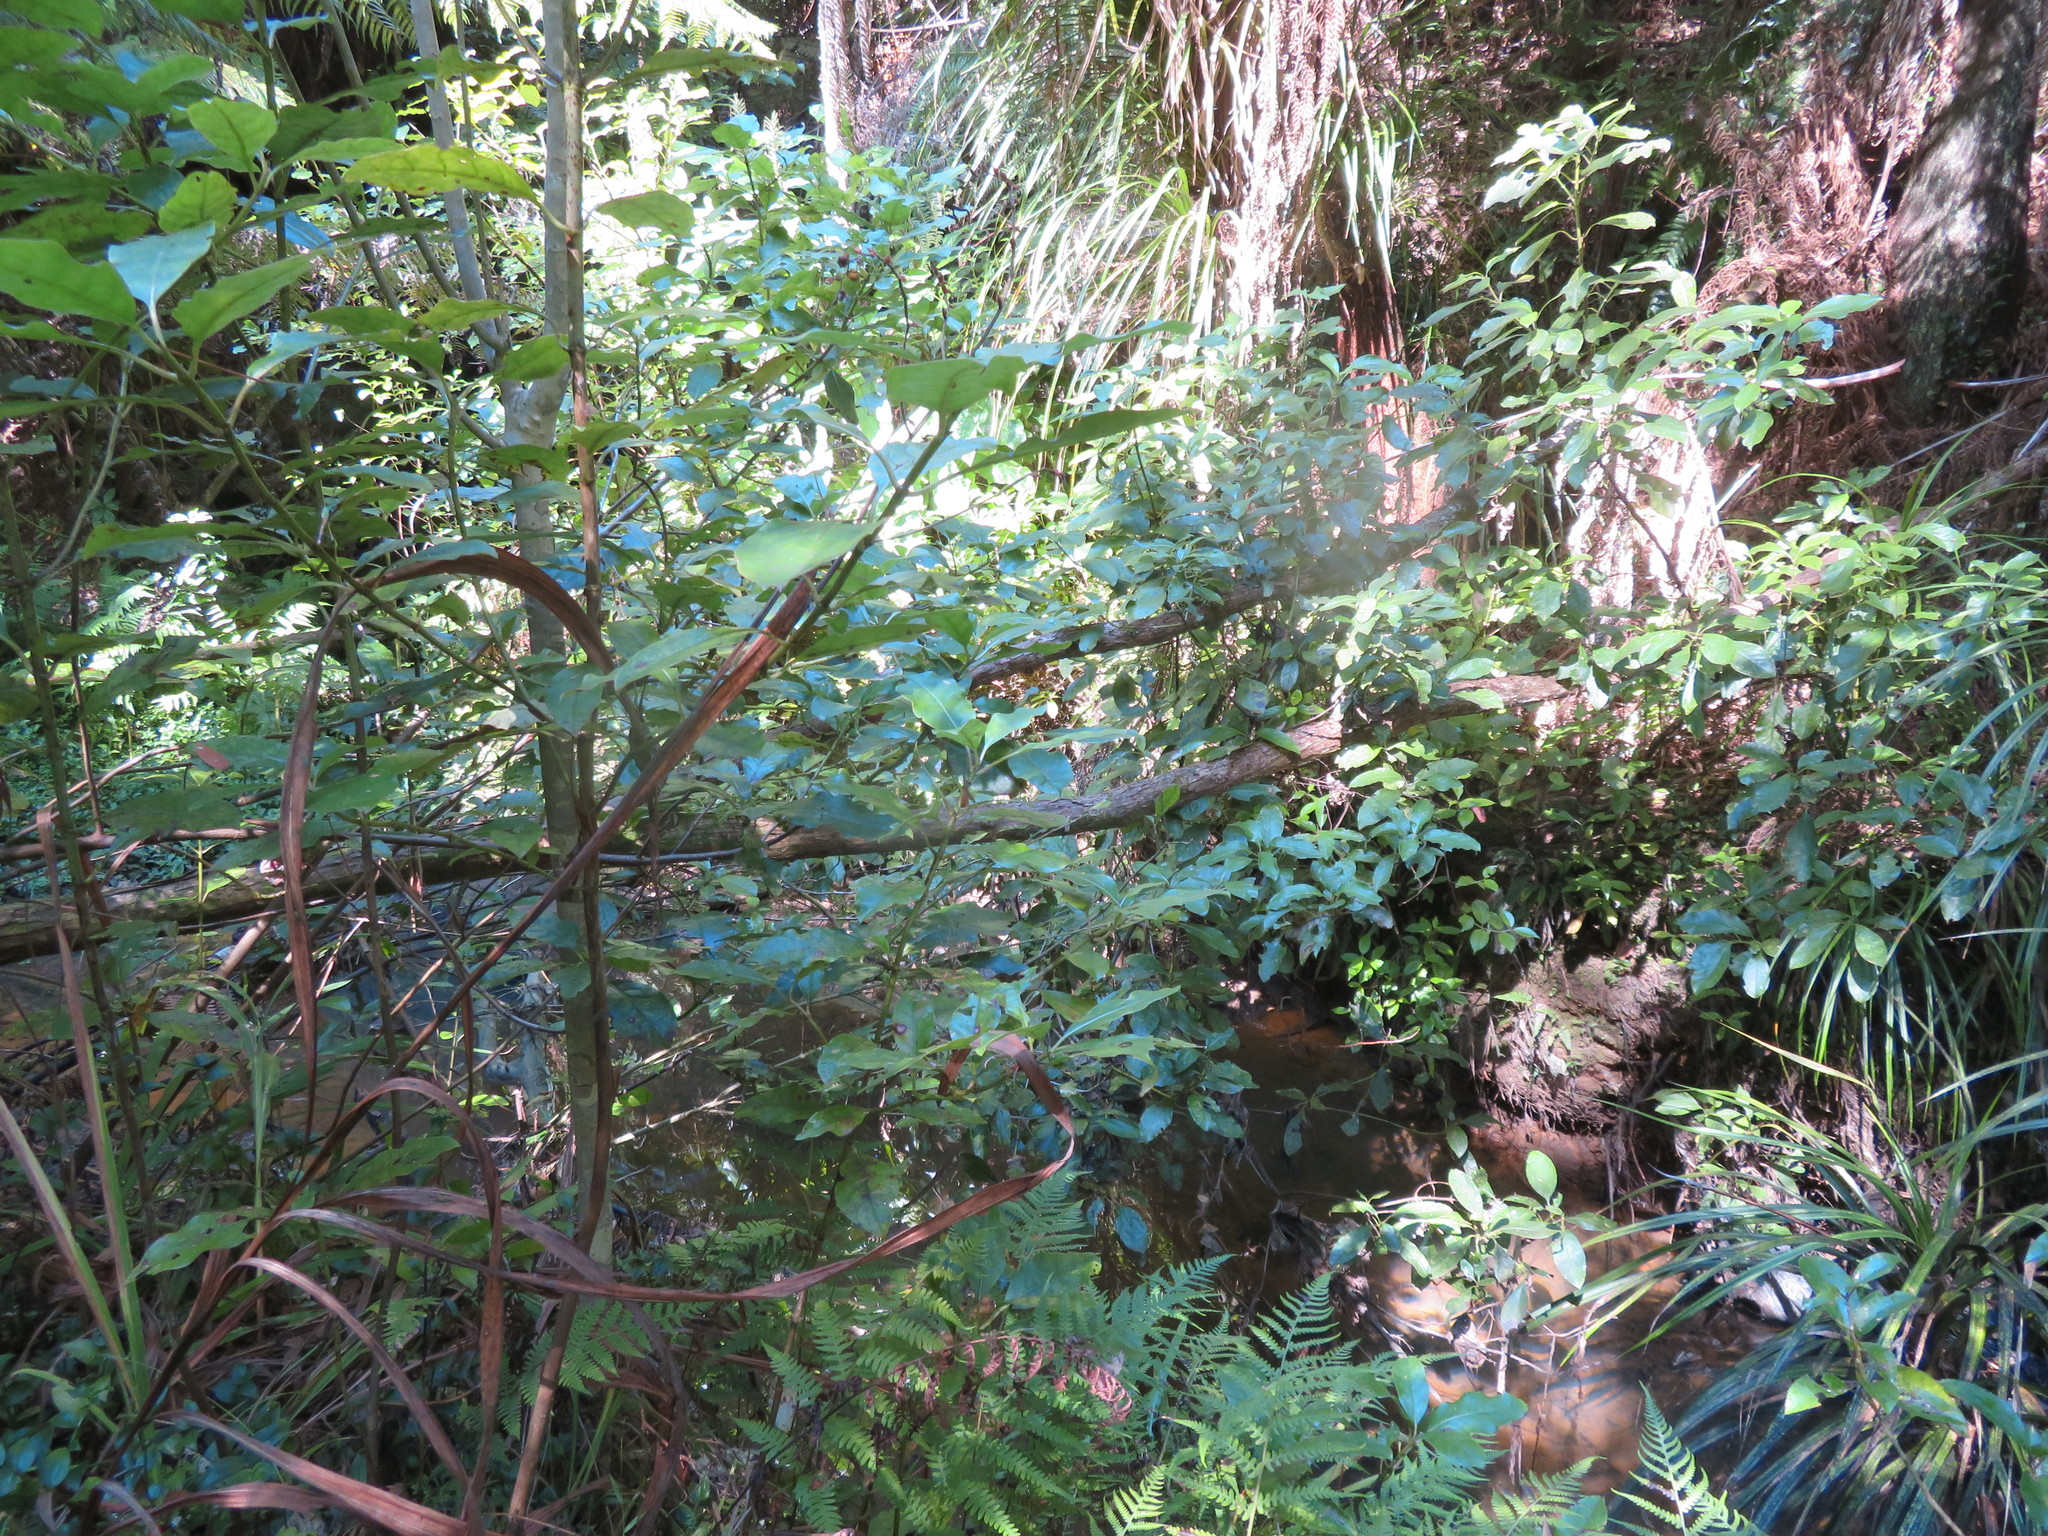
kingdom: Plantae
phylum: Tracheophyta
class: Liliopsida
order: Asparagales
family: Iridaceae
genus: Crocosmia
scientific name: Crocosmia crocosmiiflora
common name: Montbretia
